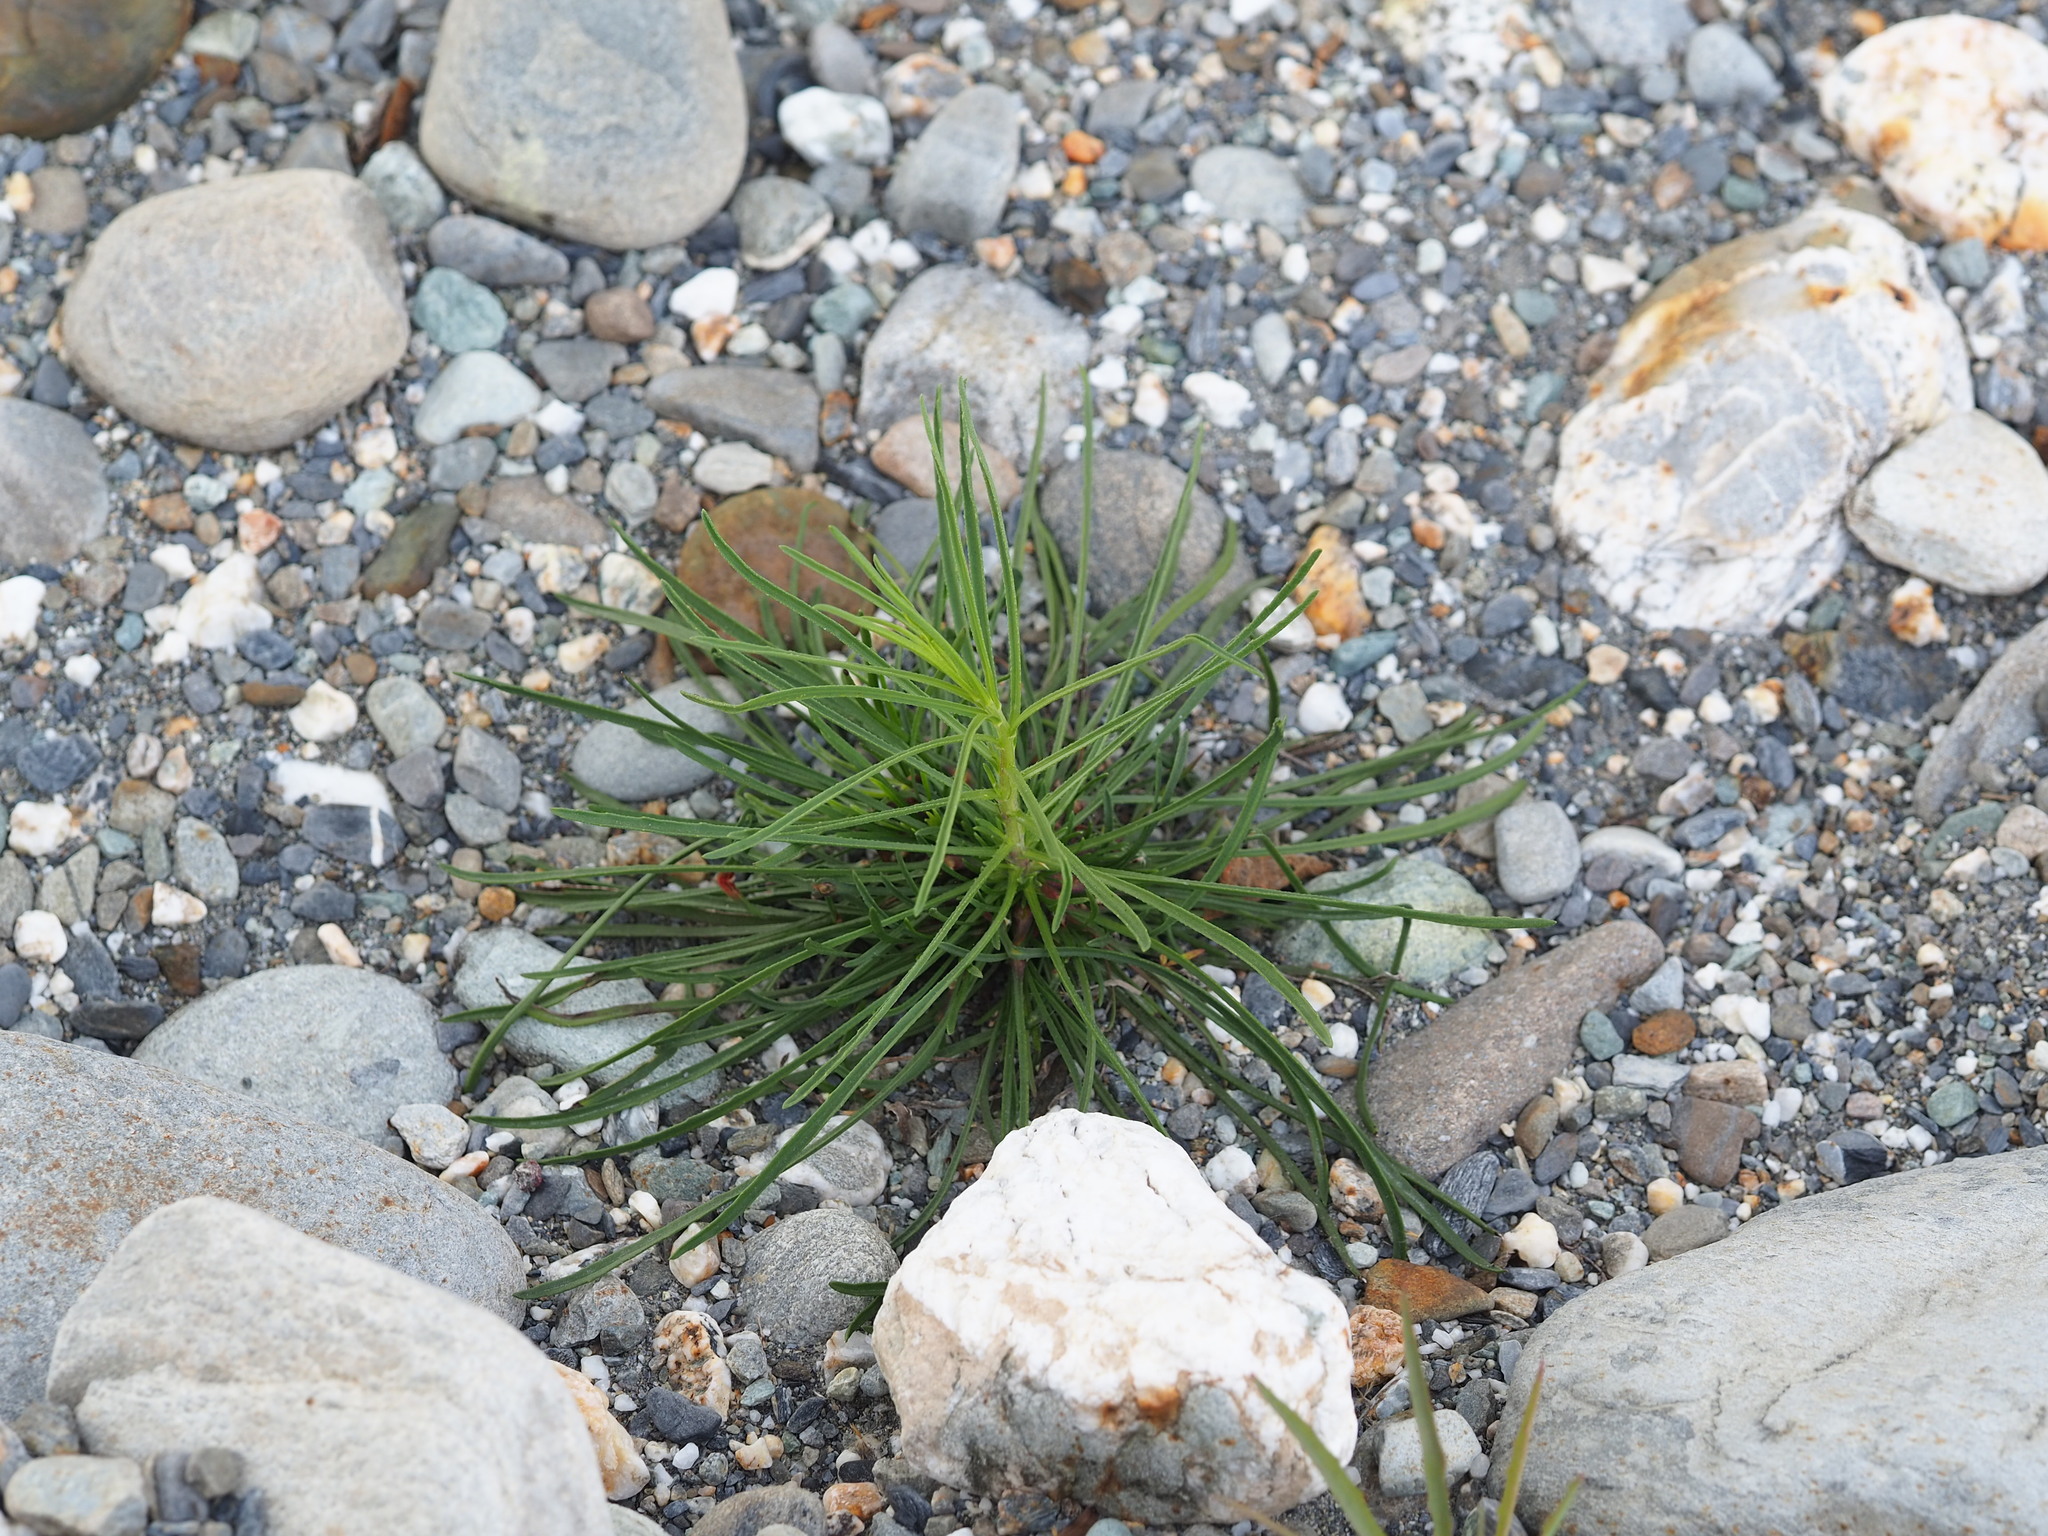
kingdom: Plantae
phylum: Tracheophyta
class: Magnoliopsida
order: Asterales
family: Asteraceae
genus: Heteropappus
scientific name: Heteropappus altaicus
